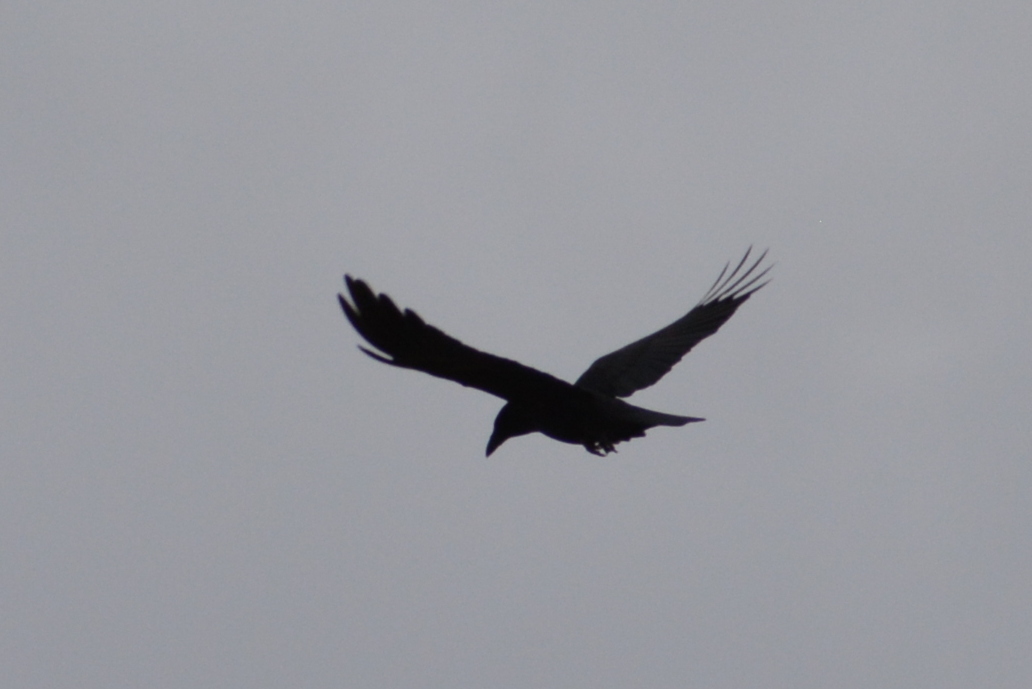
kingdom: Animalia
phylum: Chordata
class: Aves
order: Passeriformes
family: Corvidae
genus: Corvus
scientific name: Corvus corone
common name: Carrion crow
